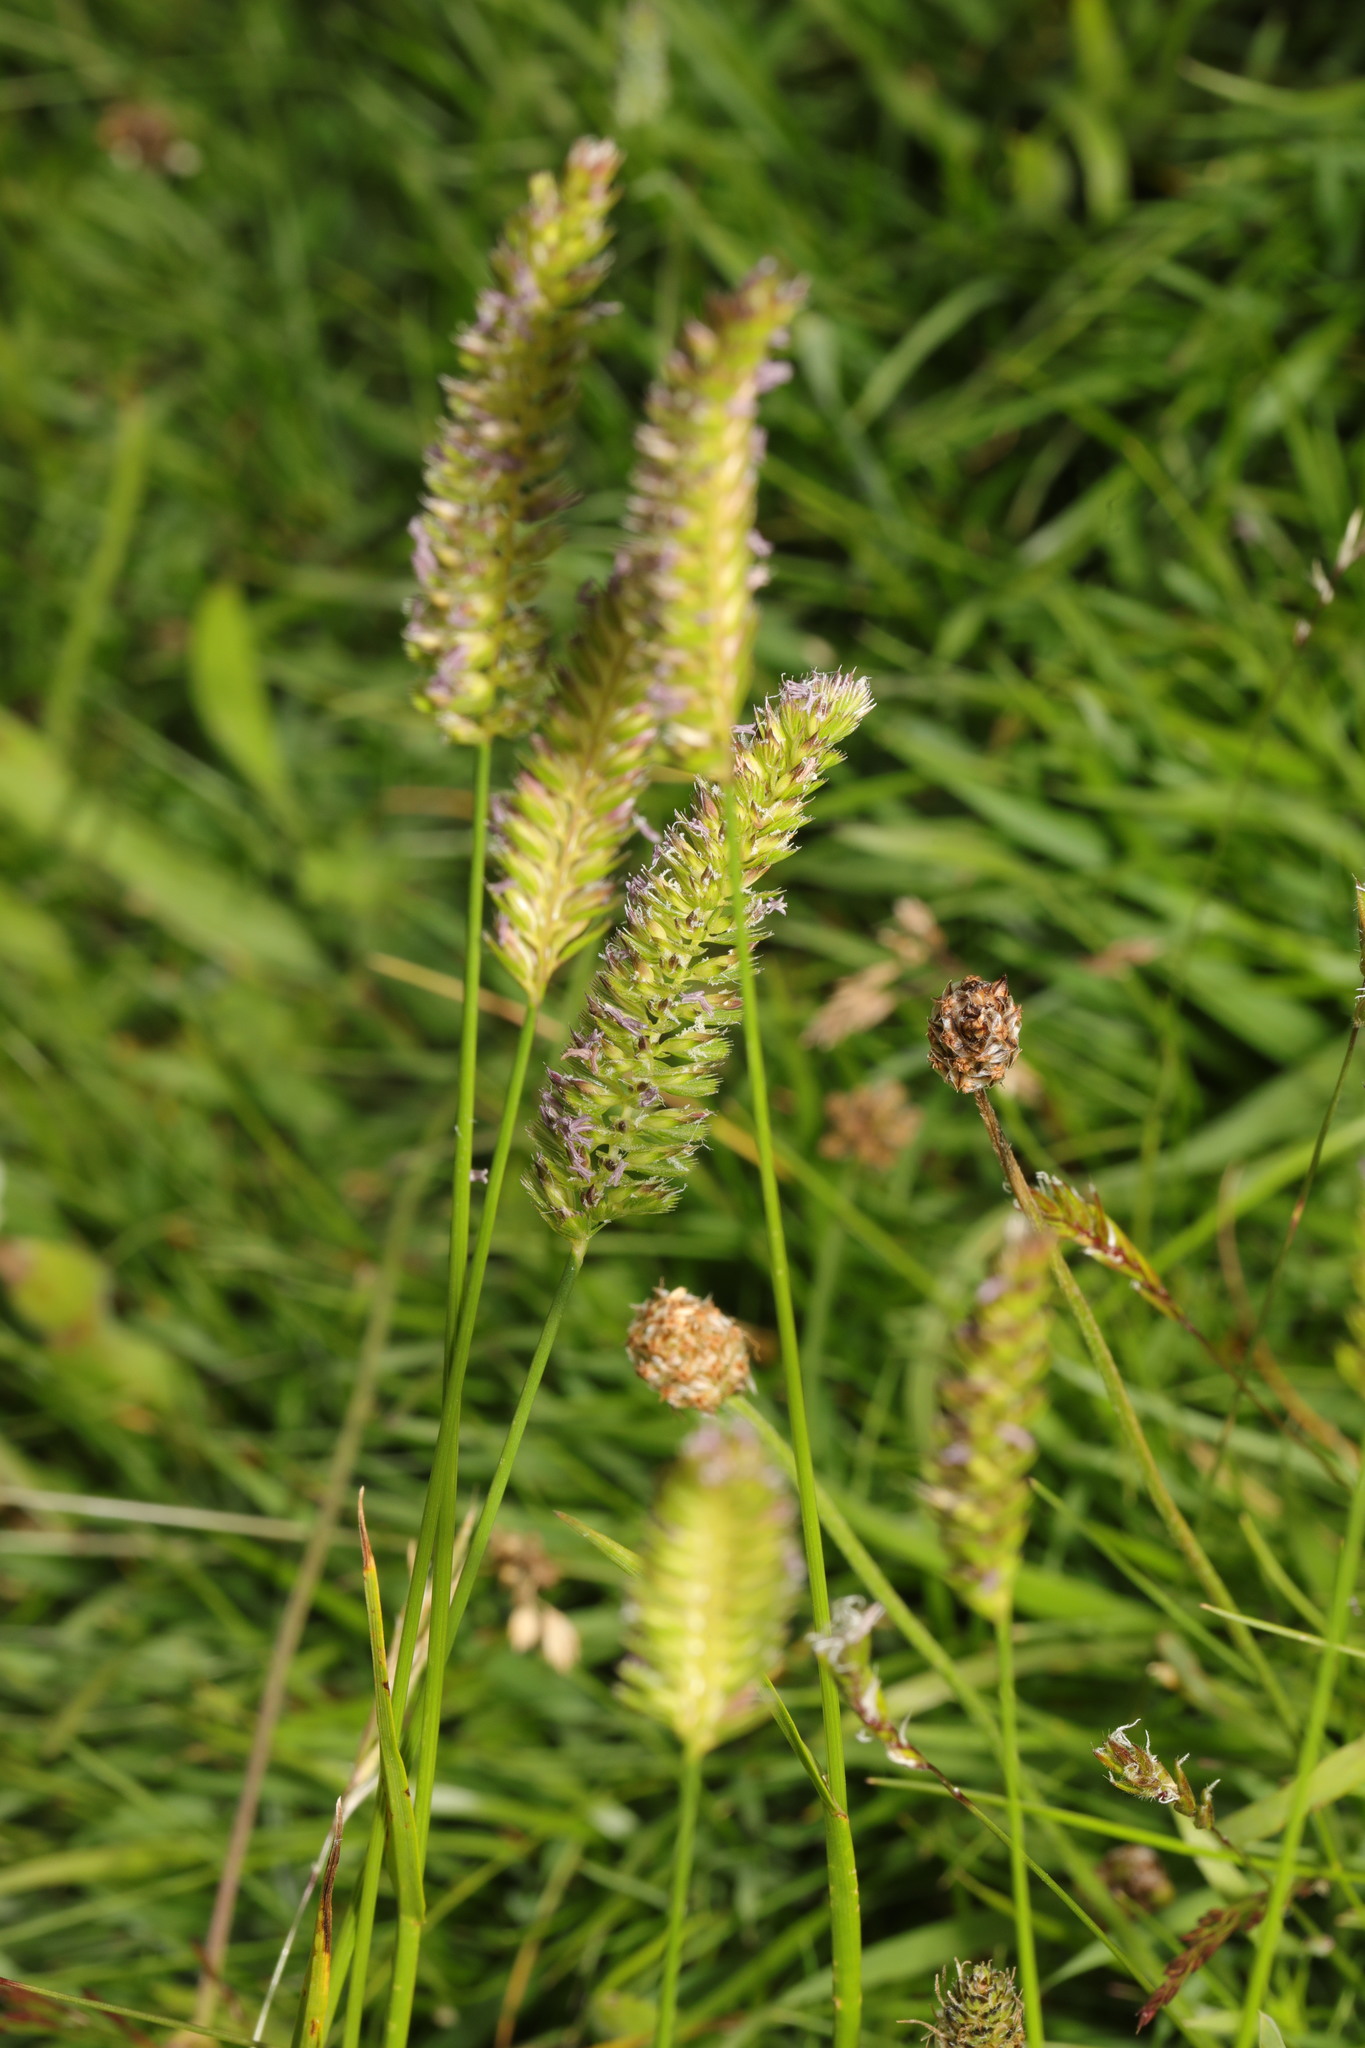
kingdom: Plantae
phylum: Tracheophyta
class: Liliopsida
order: Poales
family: Poaceae
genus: Cynosurus
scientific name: Cynosurus cristatus
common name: Crested dog's-tail
